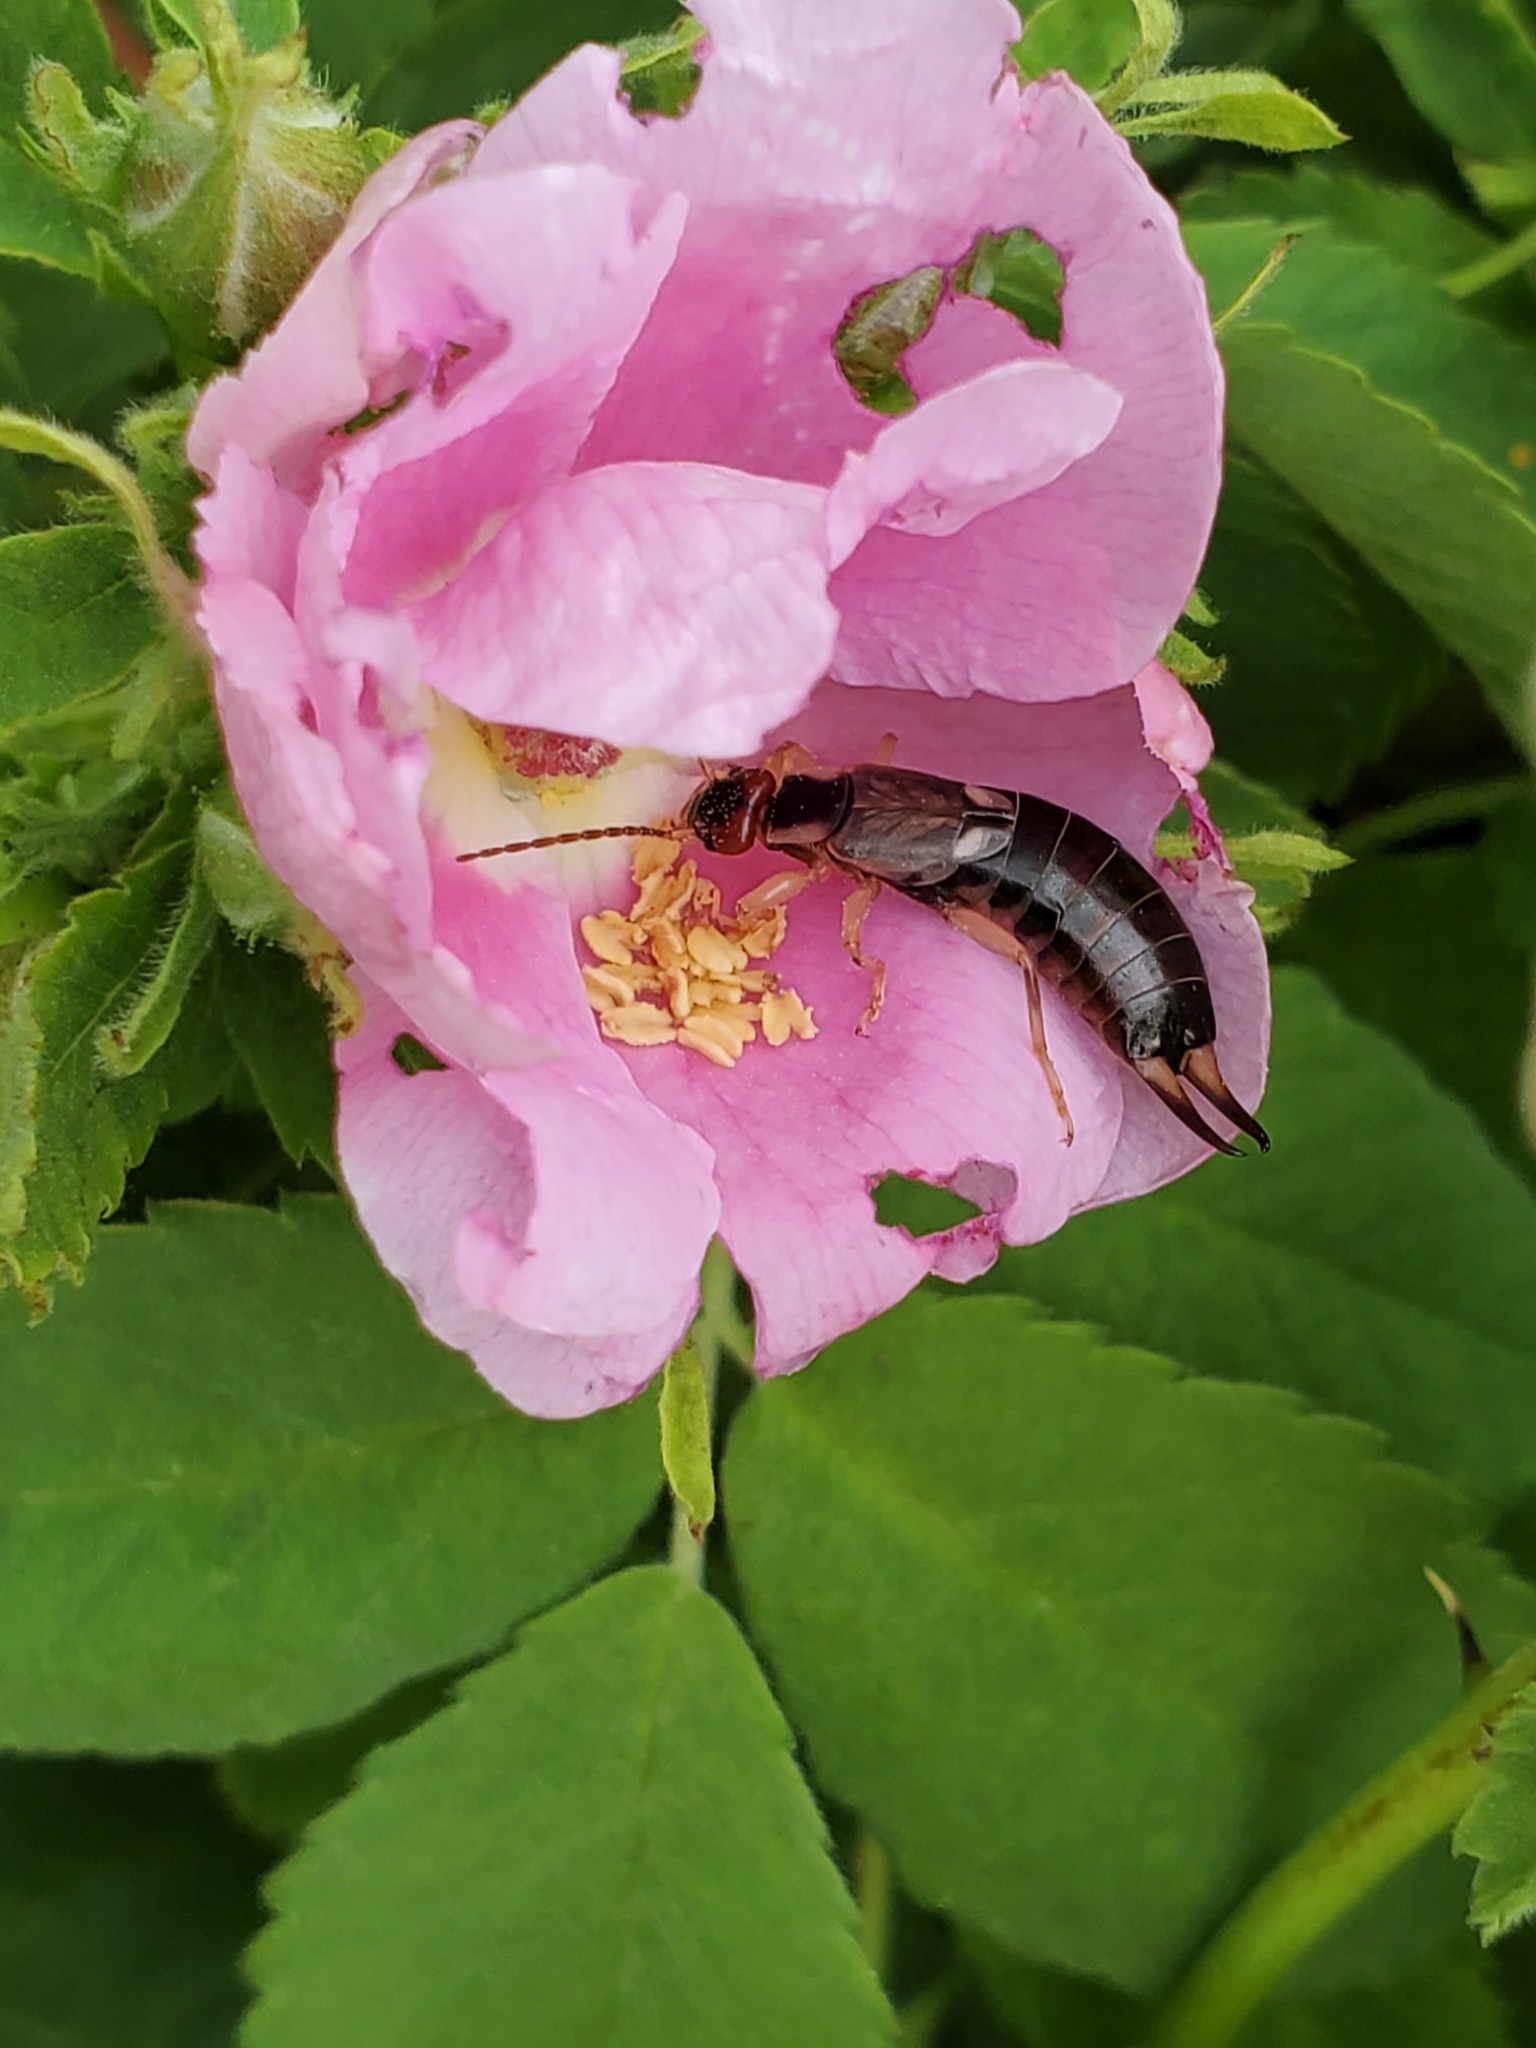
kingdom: Animalia
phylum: Arthropoda
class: Insecta
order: Dermaptera
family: Forficulidae
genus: Forficula
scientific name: Forficula
